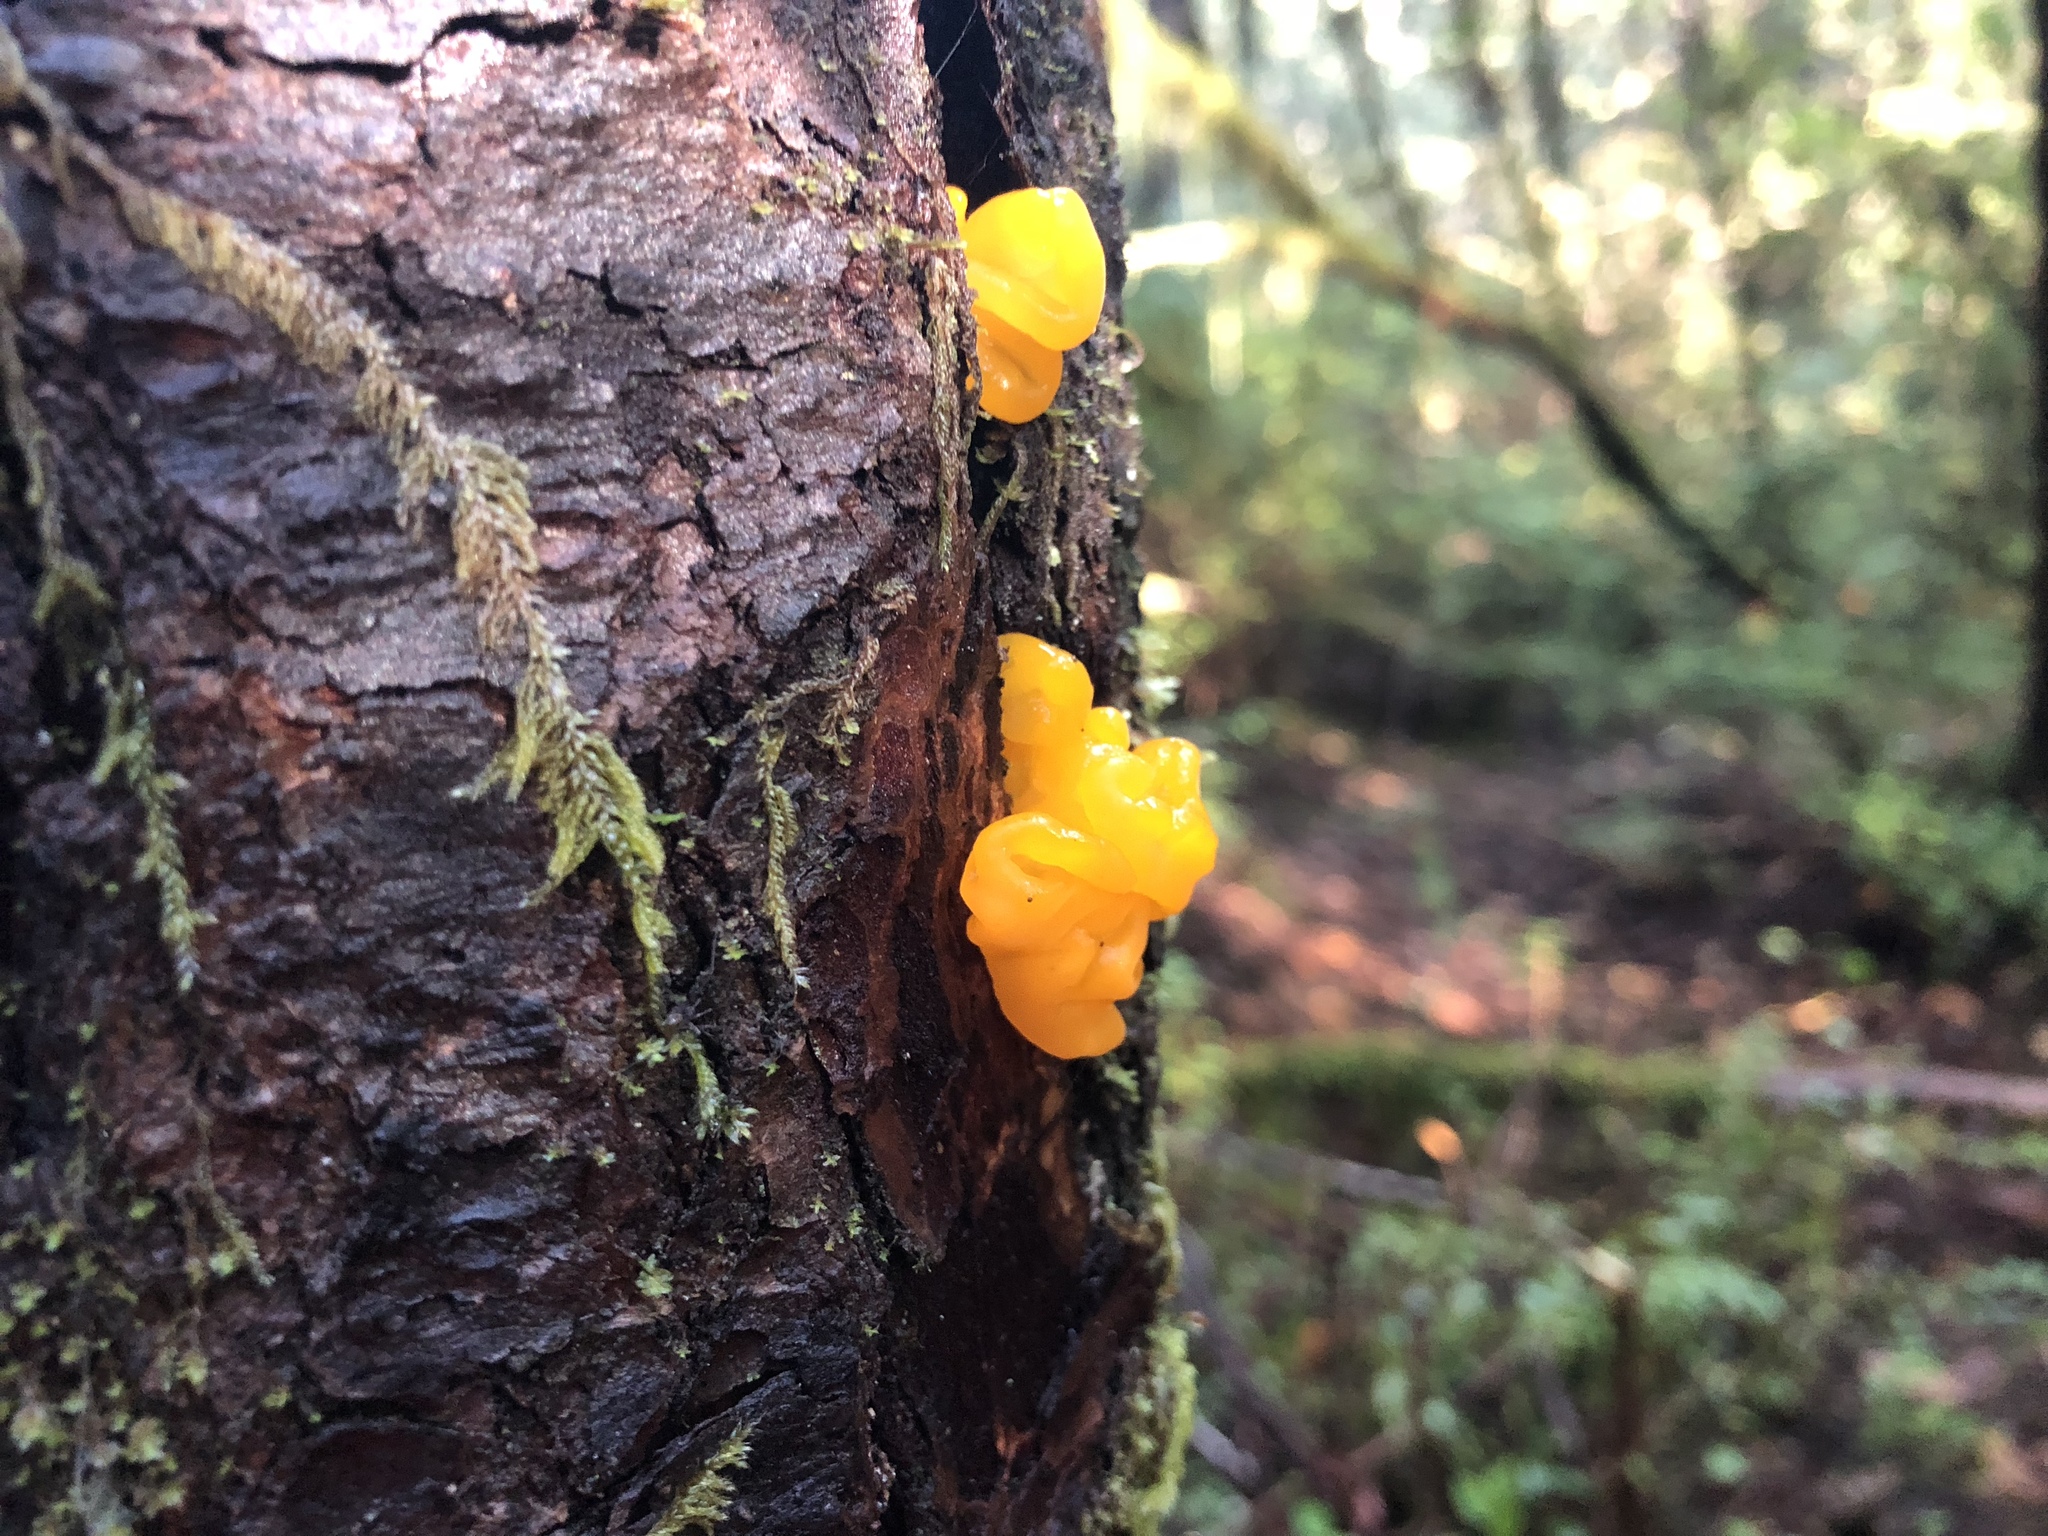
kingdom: Fungi
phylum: Basidiomycota
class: Dacrymycetes
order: Dacrymycetales
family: Dacrymycetaceae
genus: Dacrymyces
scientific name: Dacrymyces chrysospermus
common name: Orange jelly spot
